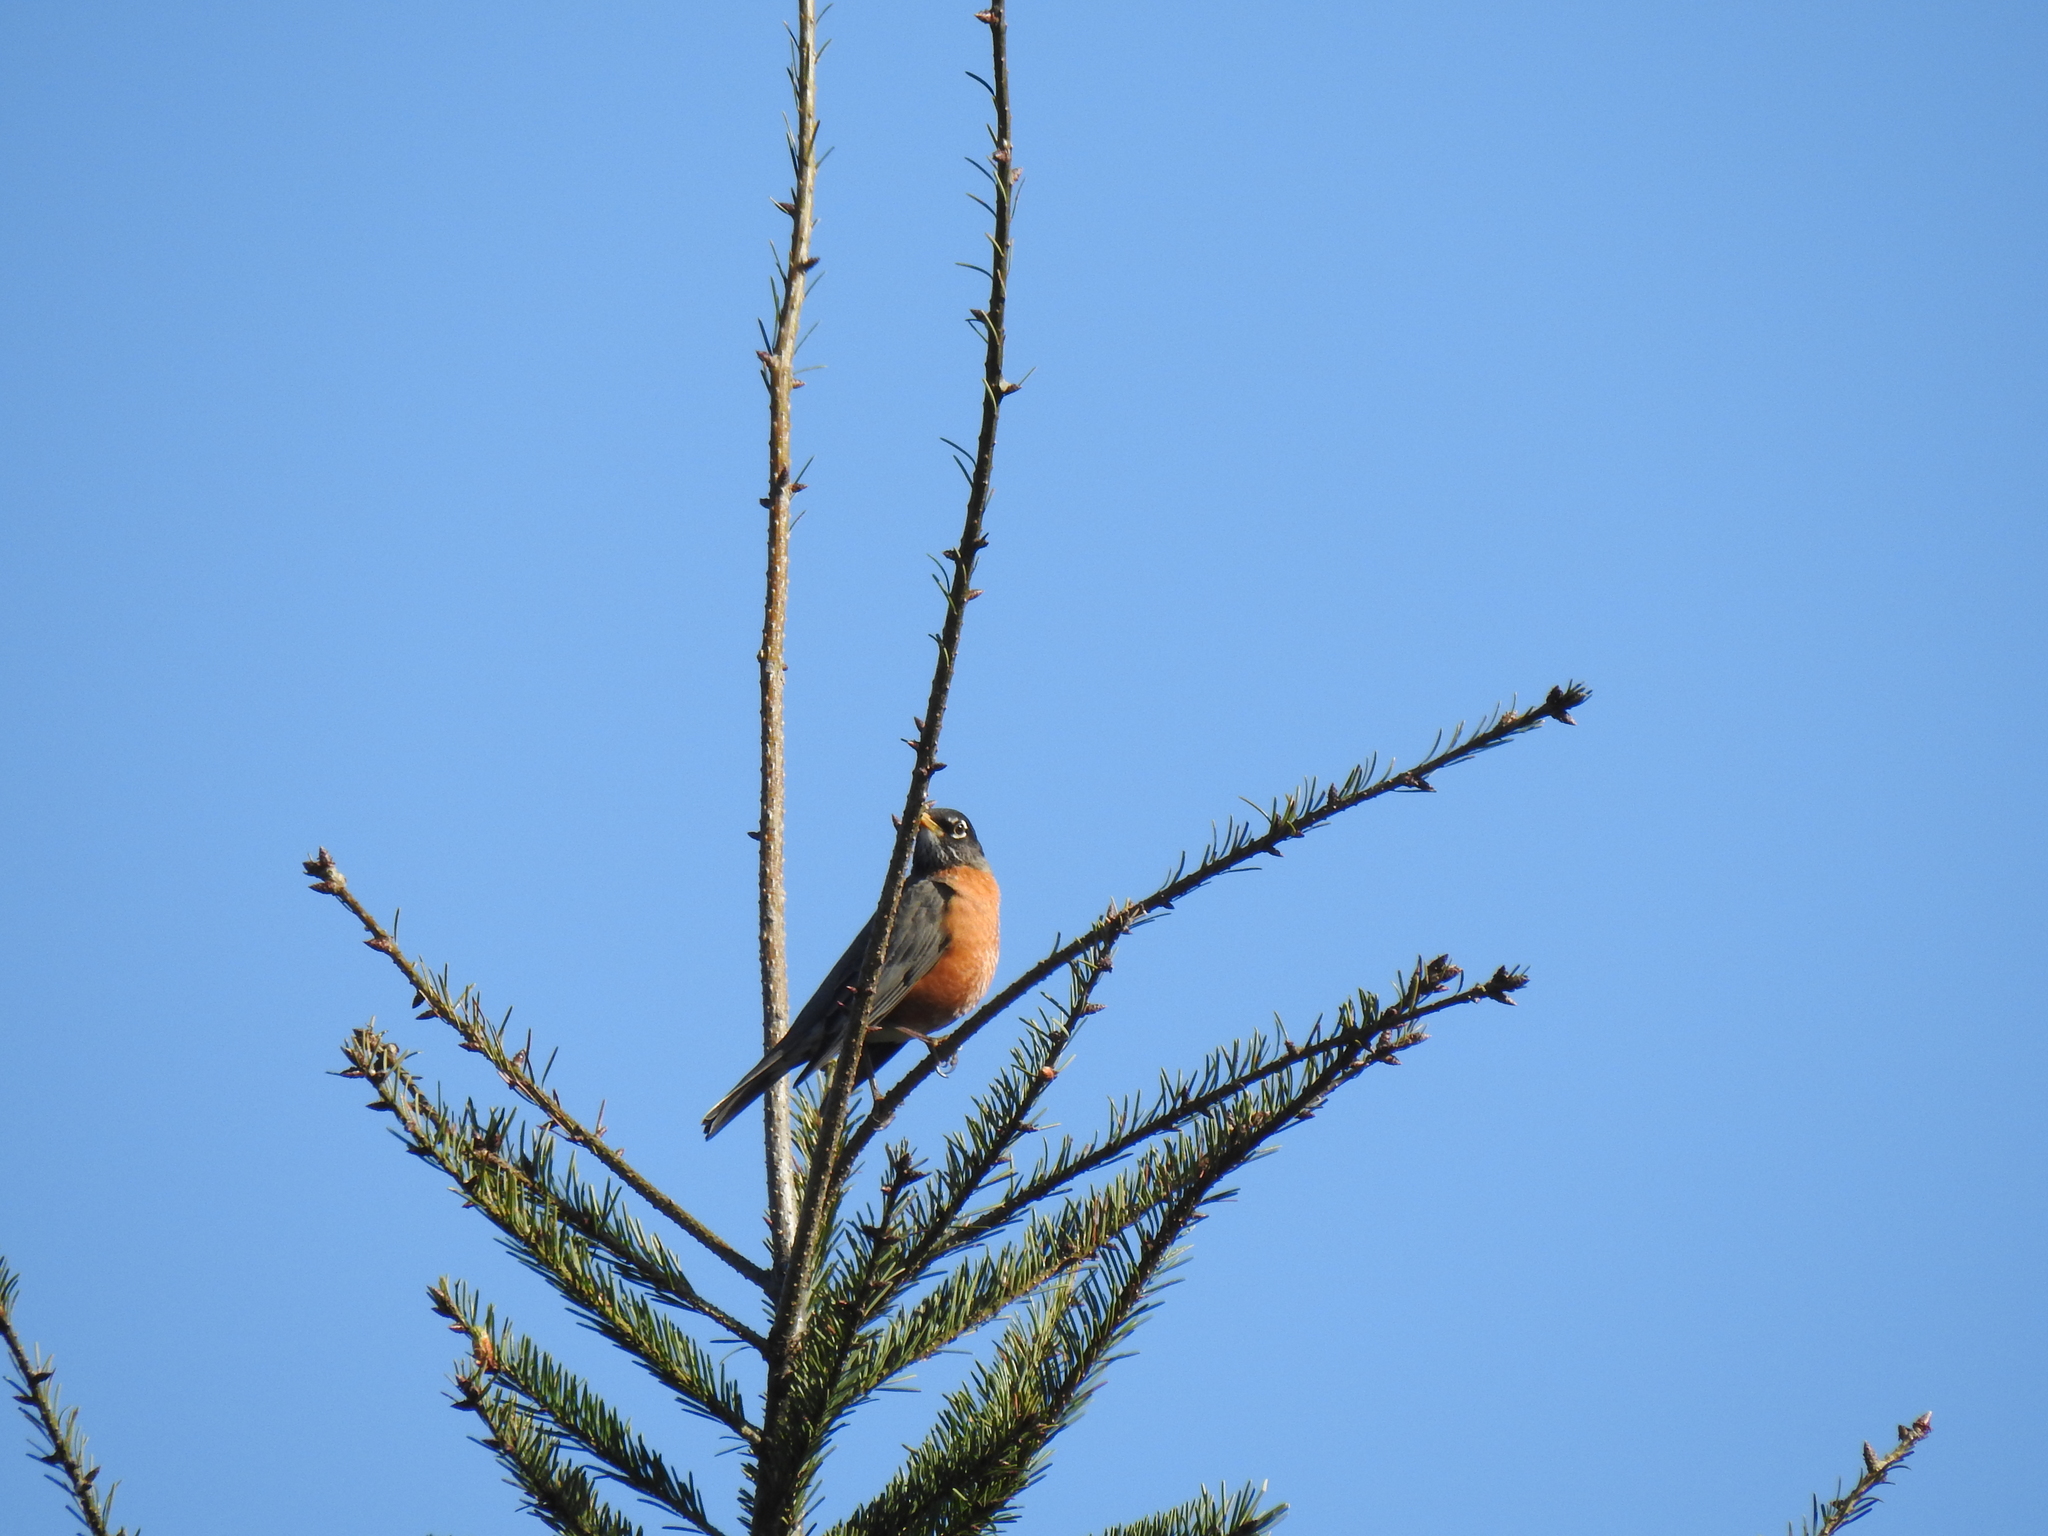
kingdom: Animalia
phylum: Chordata
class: Aves
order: Passeriformes
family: Turdidae
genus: Turdus
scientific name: Turdus migratorius
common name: American robin
